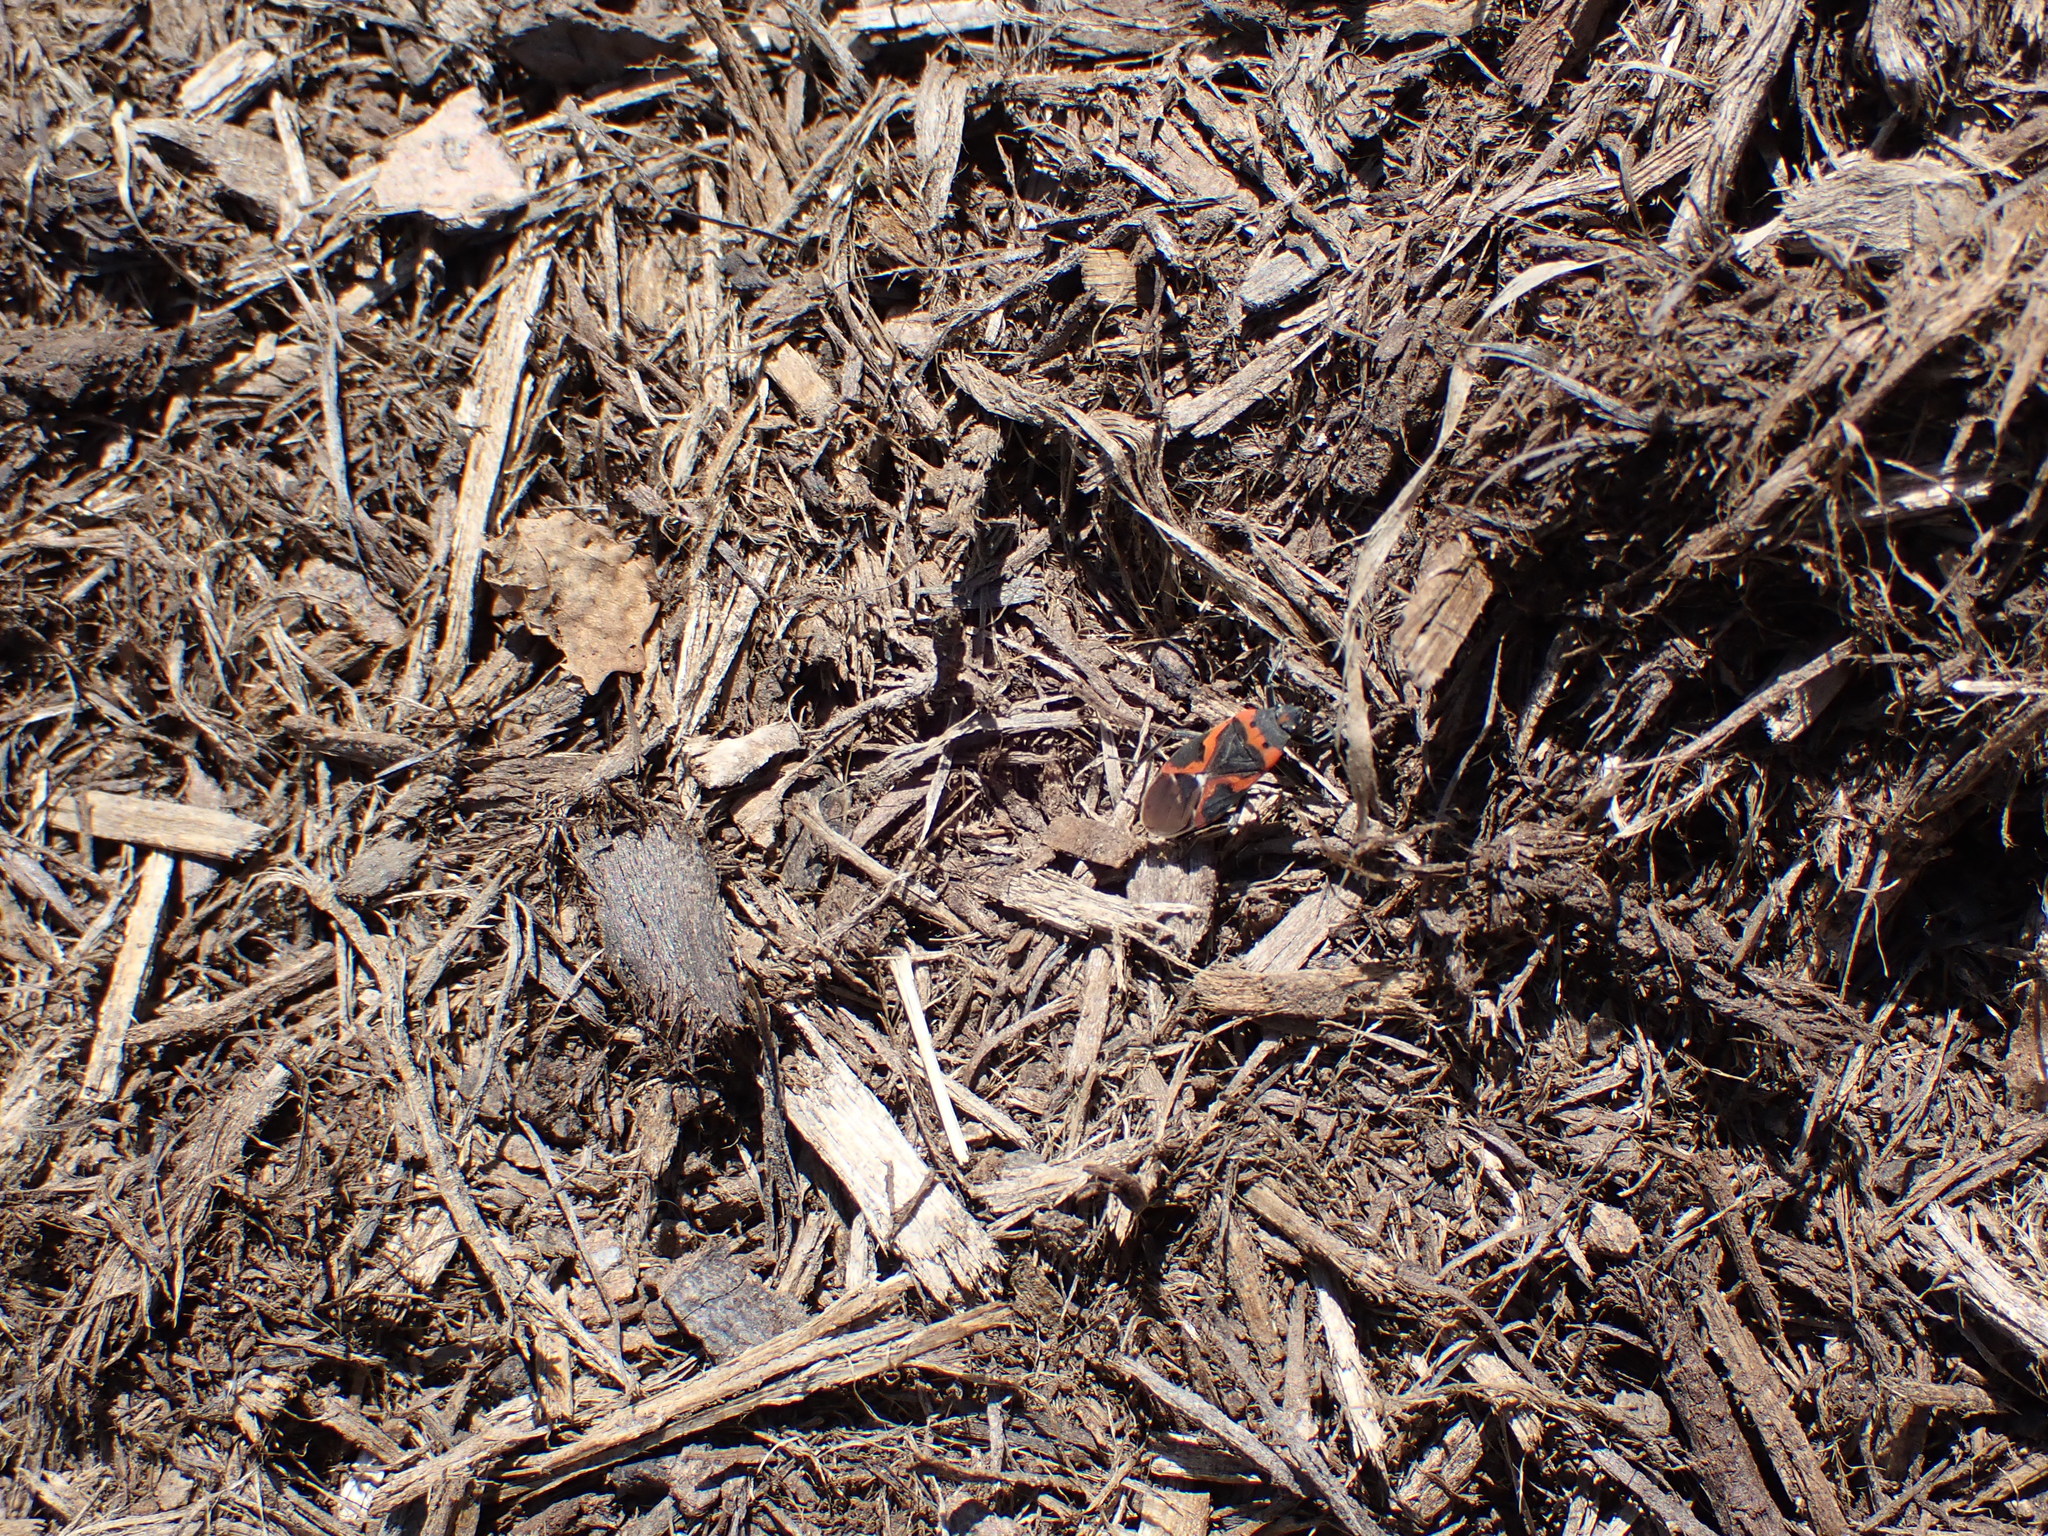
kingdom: Animalia
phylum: Arthropoda
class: Insecta
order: Hemiptera
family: Lygaeidae
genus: Lygaeus
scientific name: Lygaeus kalmii
